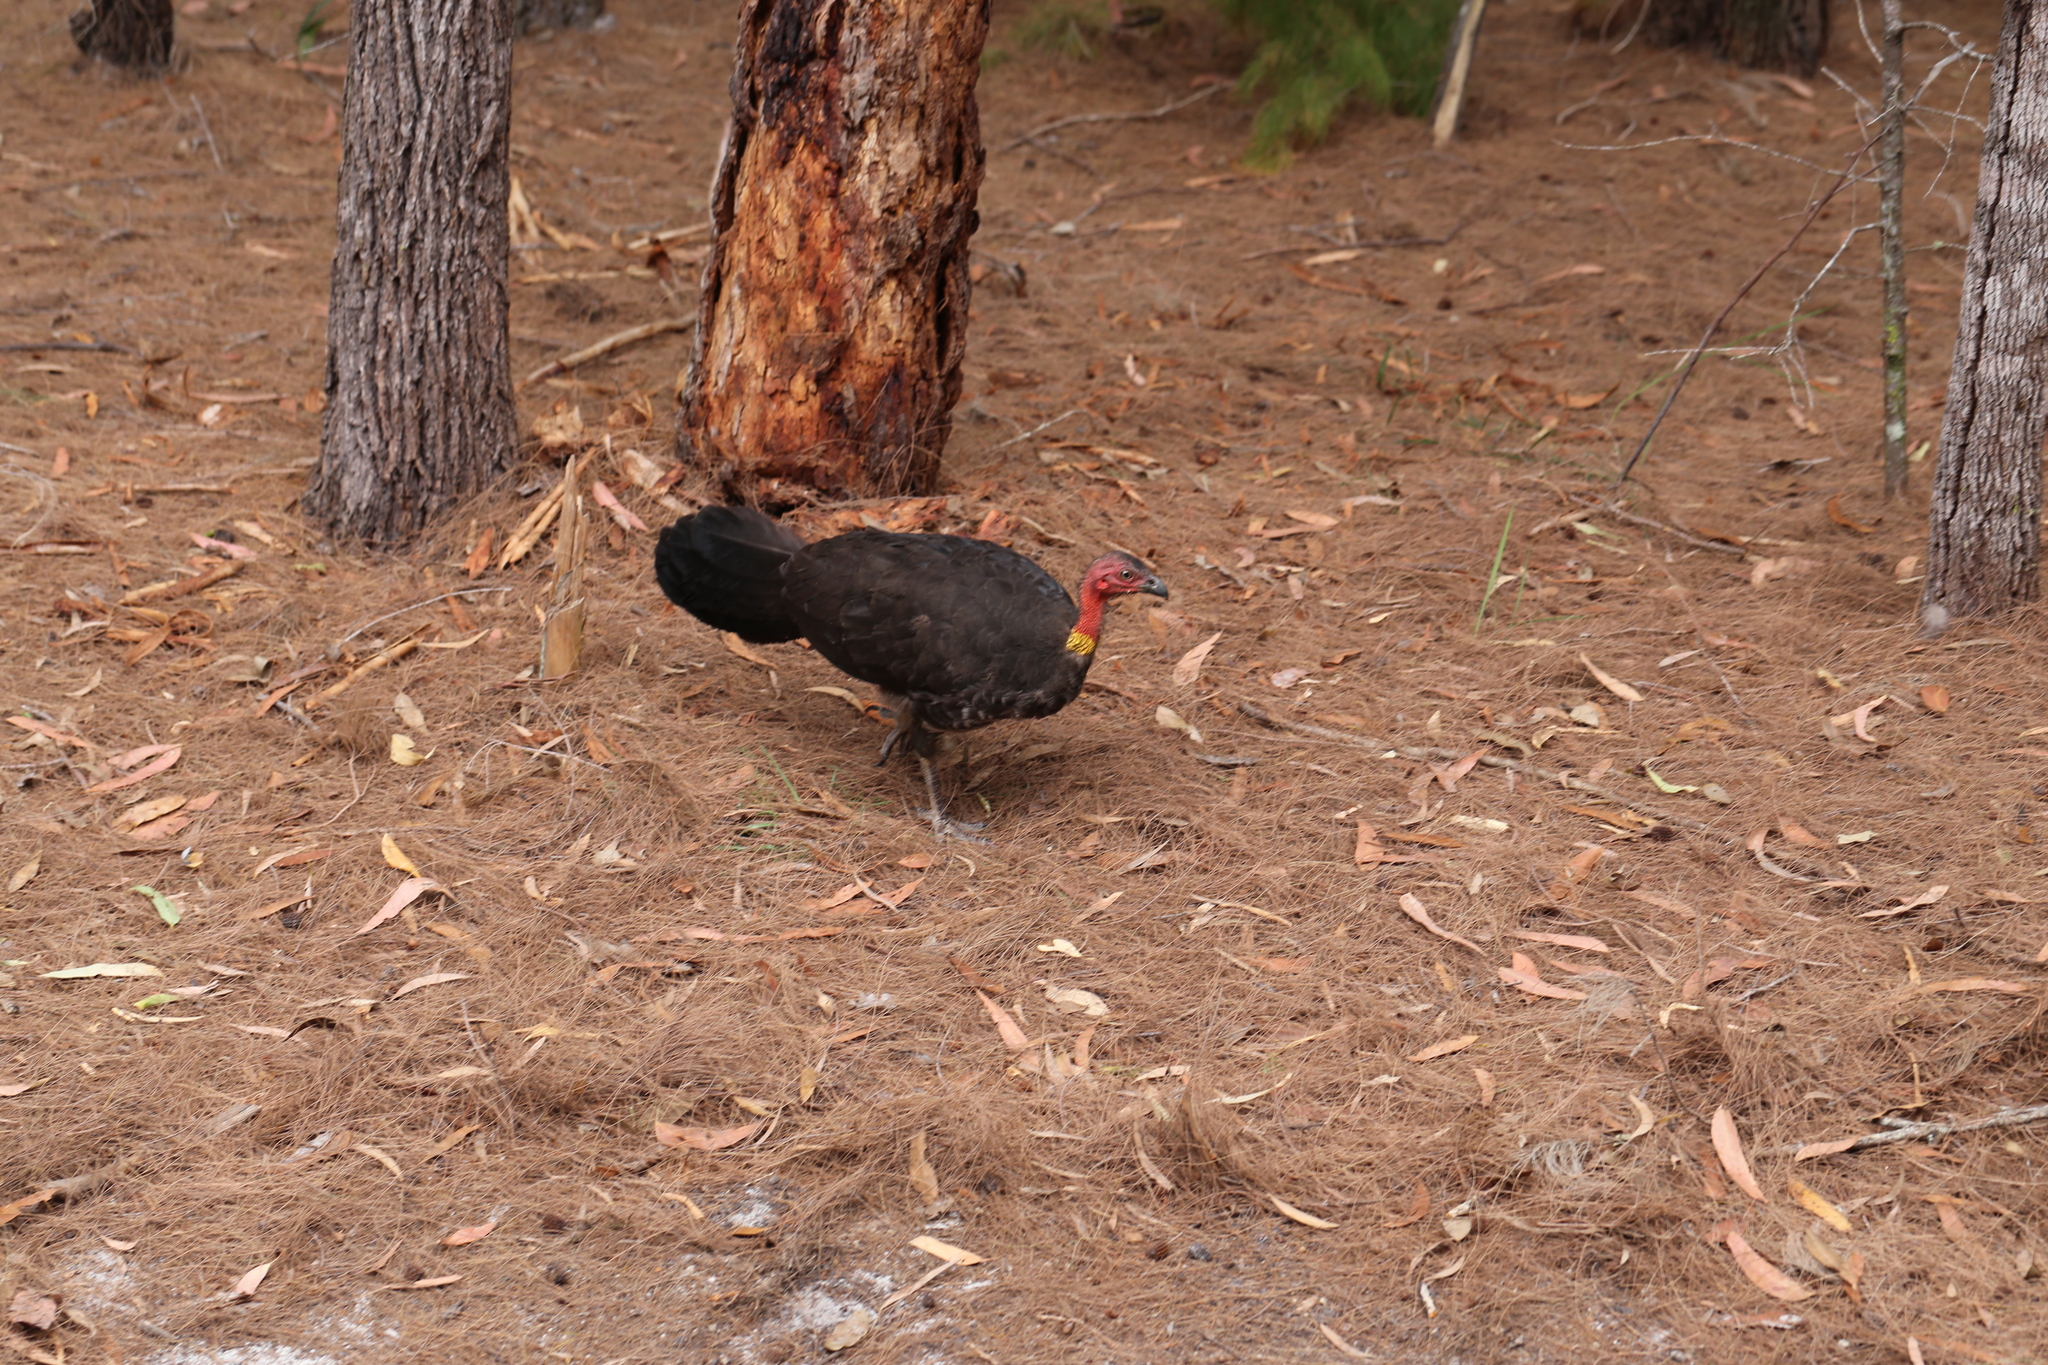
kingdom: Animalia
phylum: Chordata
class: Aves
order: Galliformes
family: Megapodiidae
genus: Alectura
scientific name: Alectura lathami
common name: Australian brushturkey
